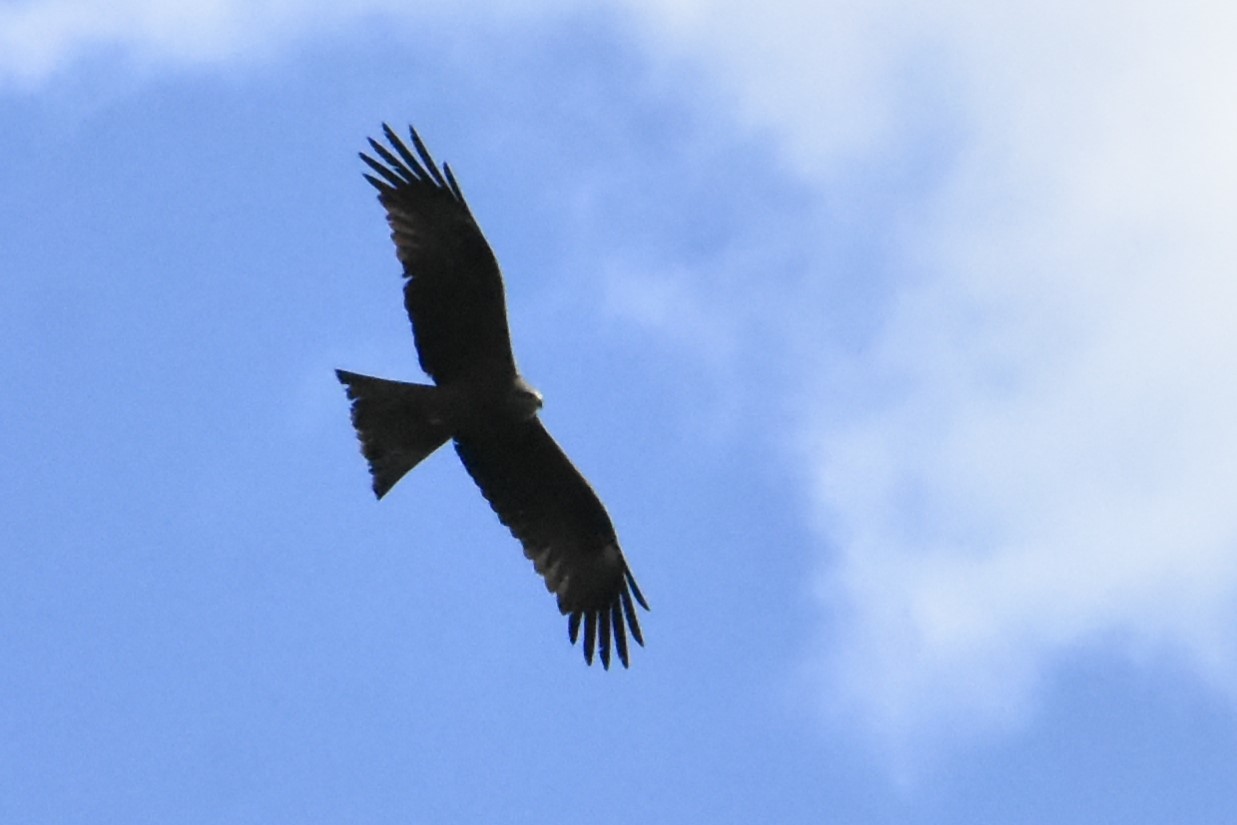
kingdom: Animalia
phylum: Chordata
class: Aves
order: Accipitriformes
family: Accipitridae
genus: Milvus
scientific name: Milvus migrans
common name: Black kite
